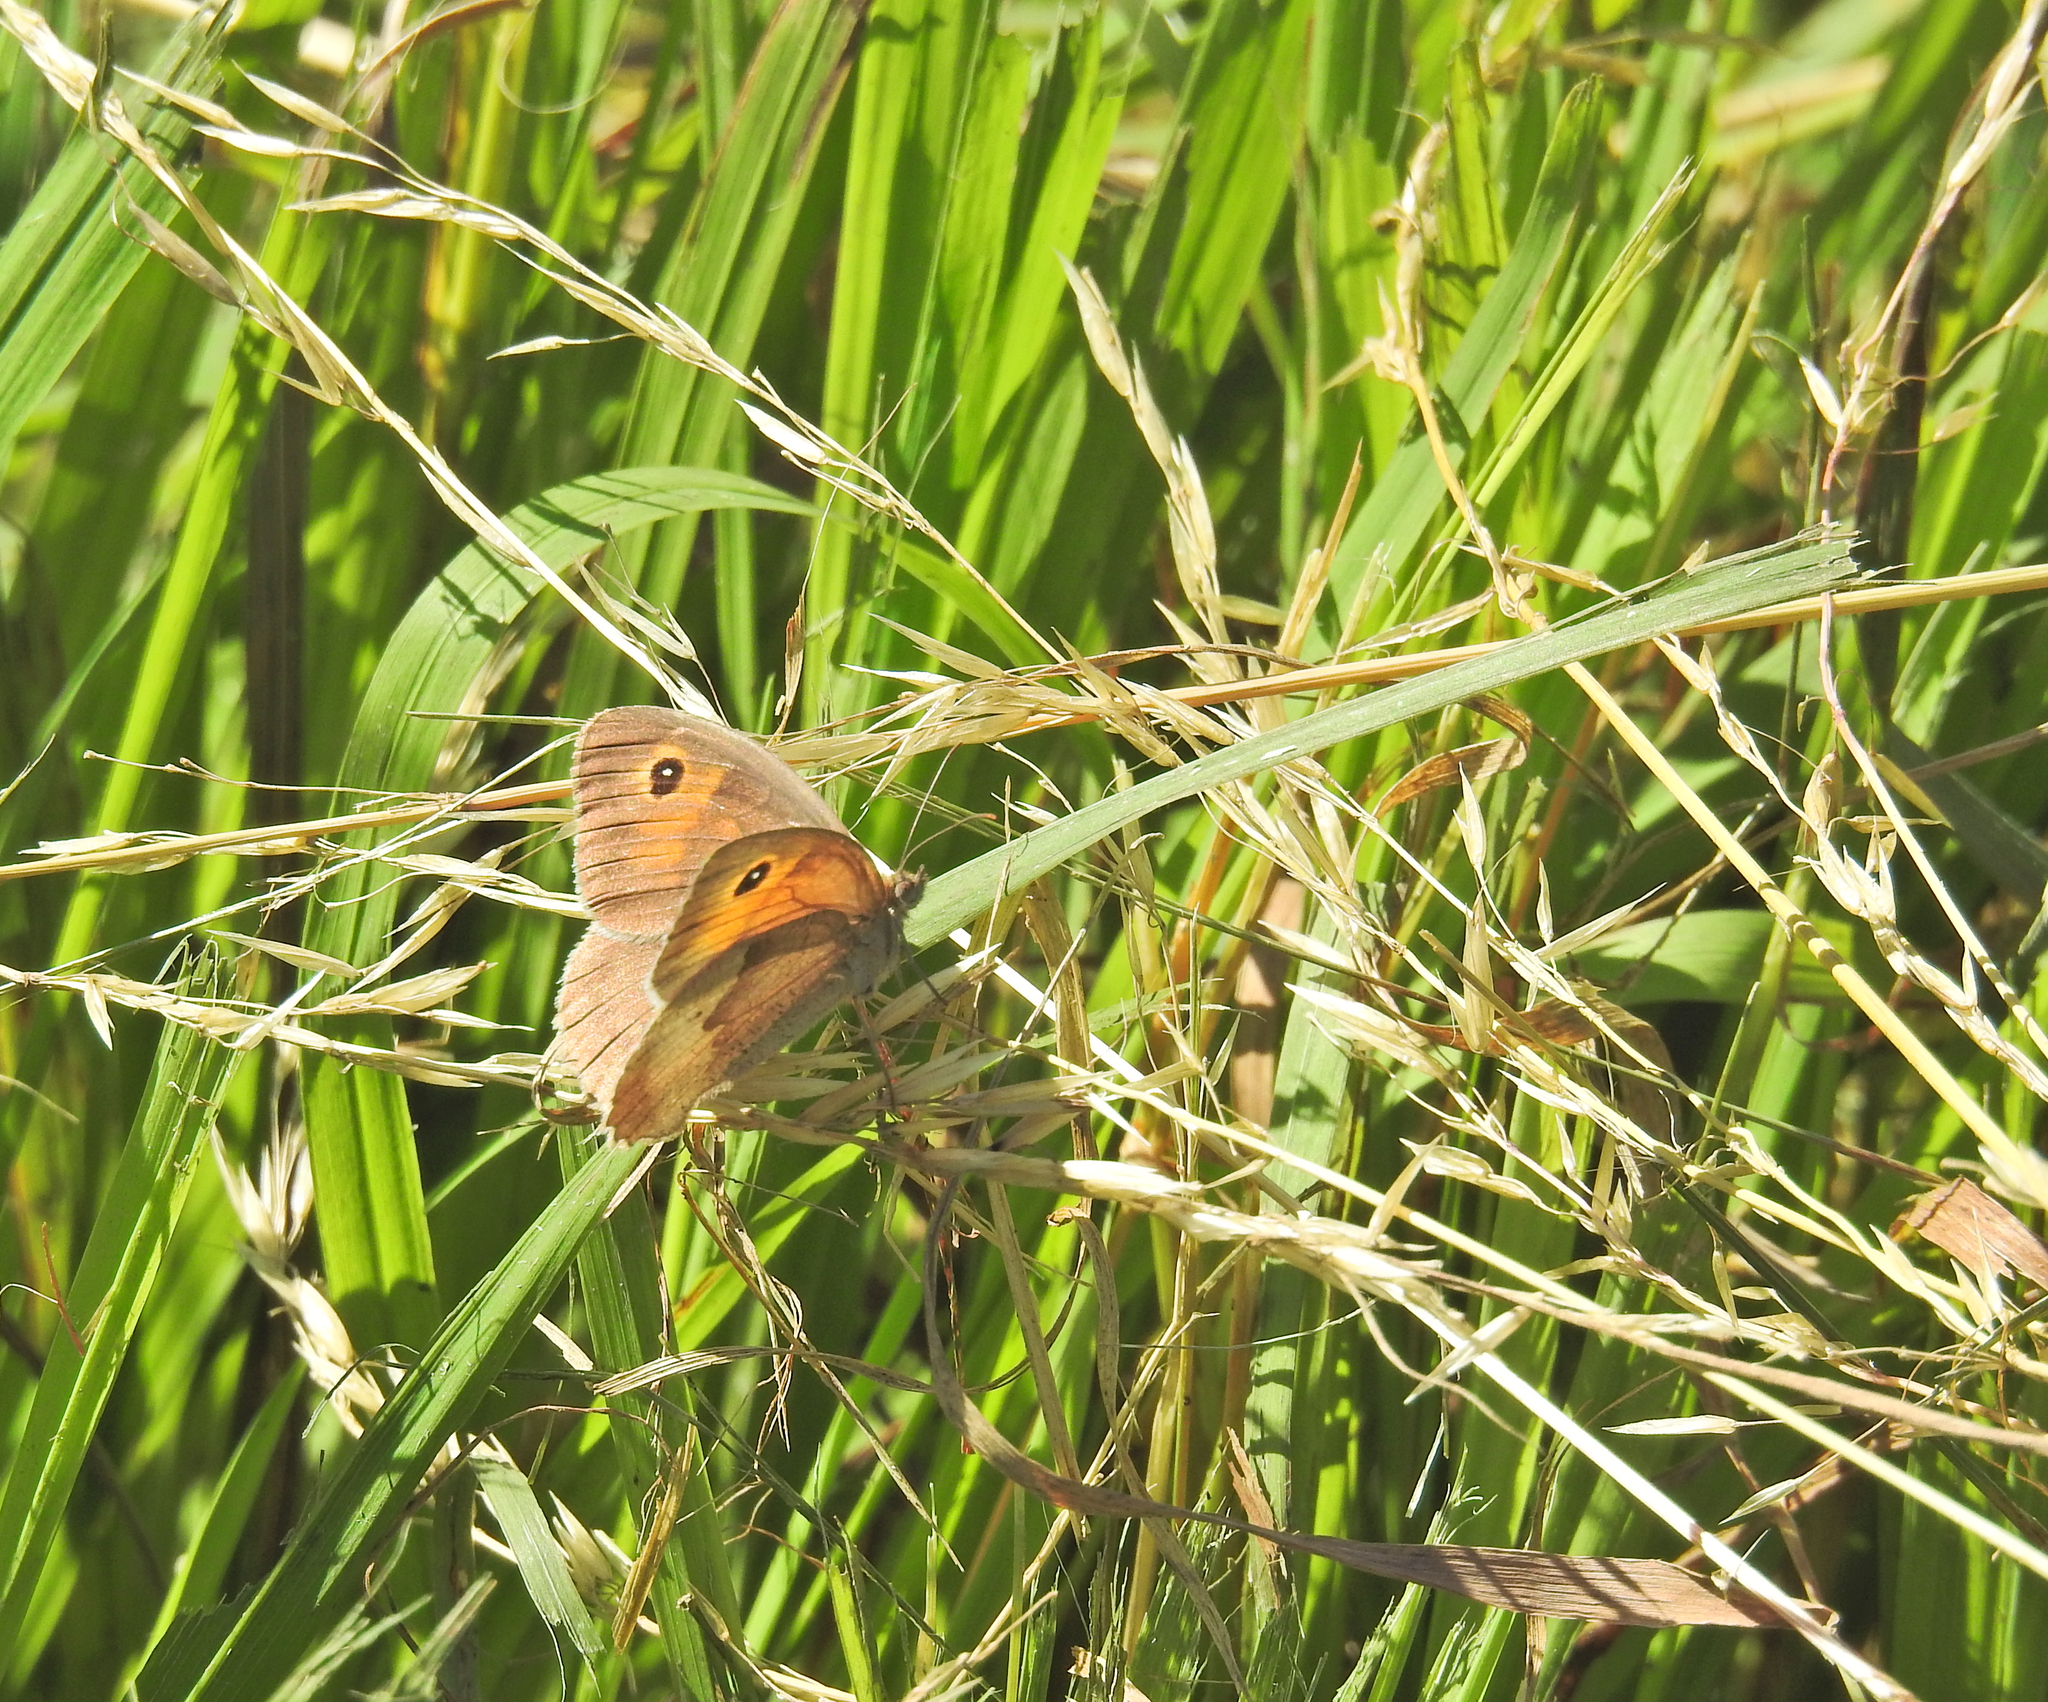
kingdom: Animalia
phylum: Arthropoda
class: Insecta
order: Lepidoptera
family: Nymphalidae
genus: Maniola
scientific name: Maniola jurtina
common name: Meadow brown
